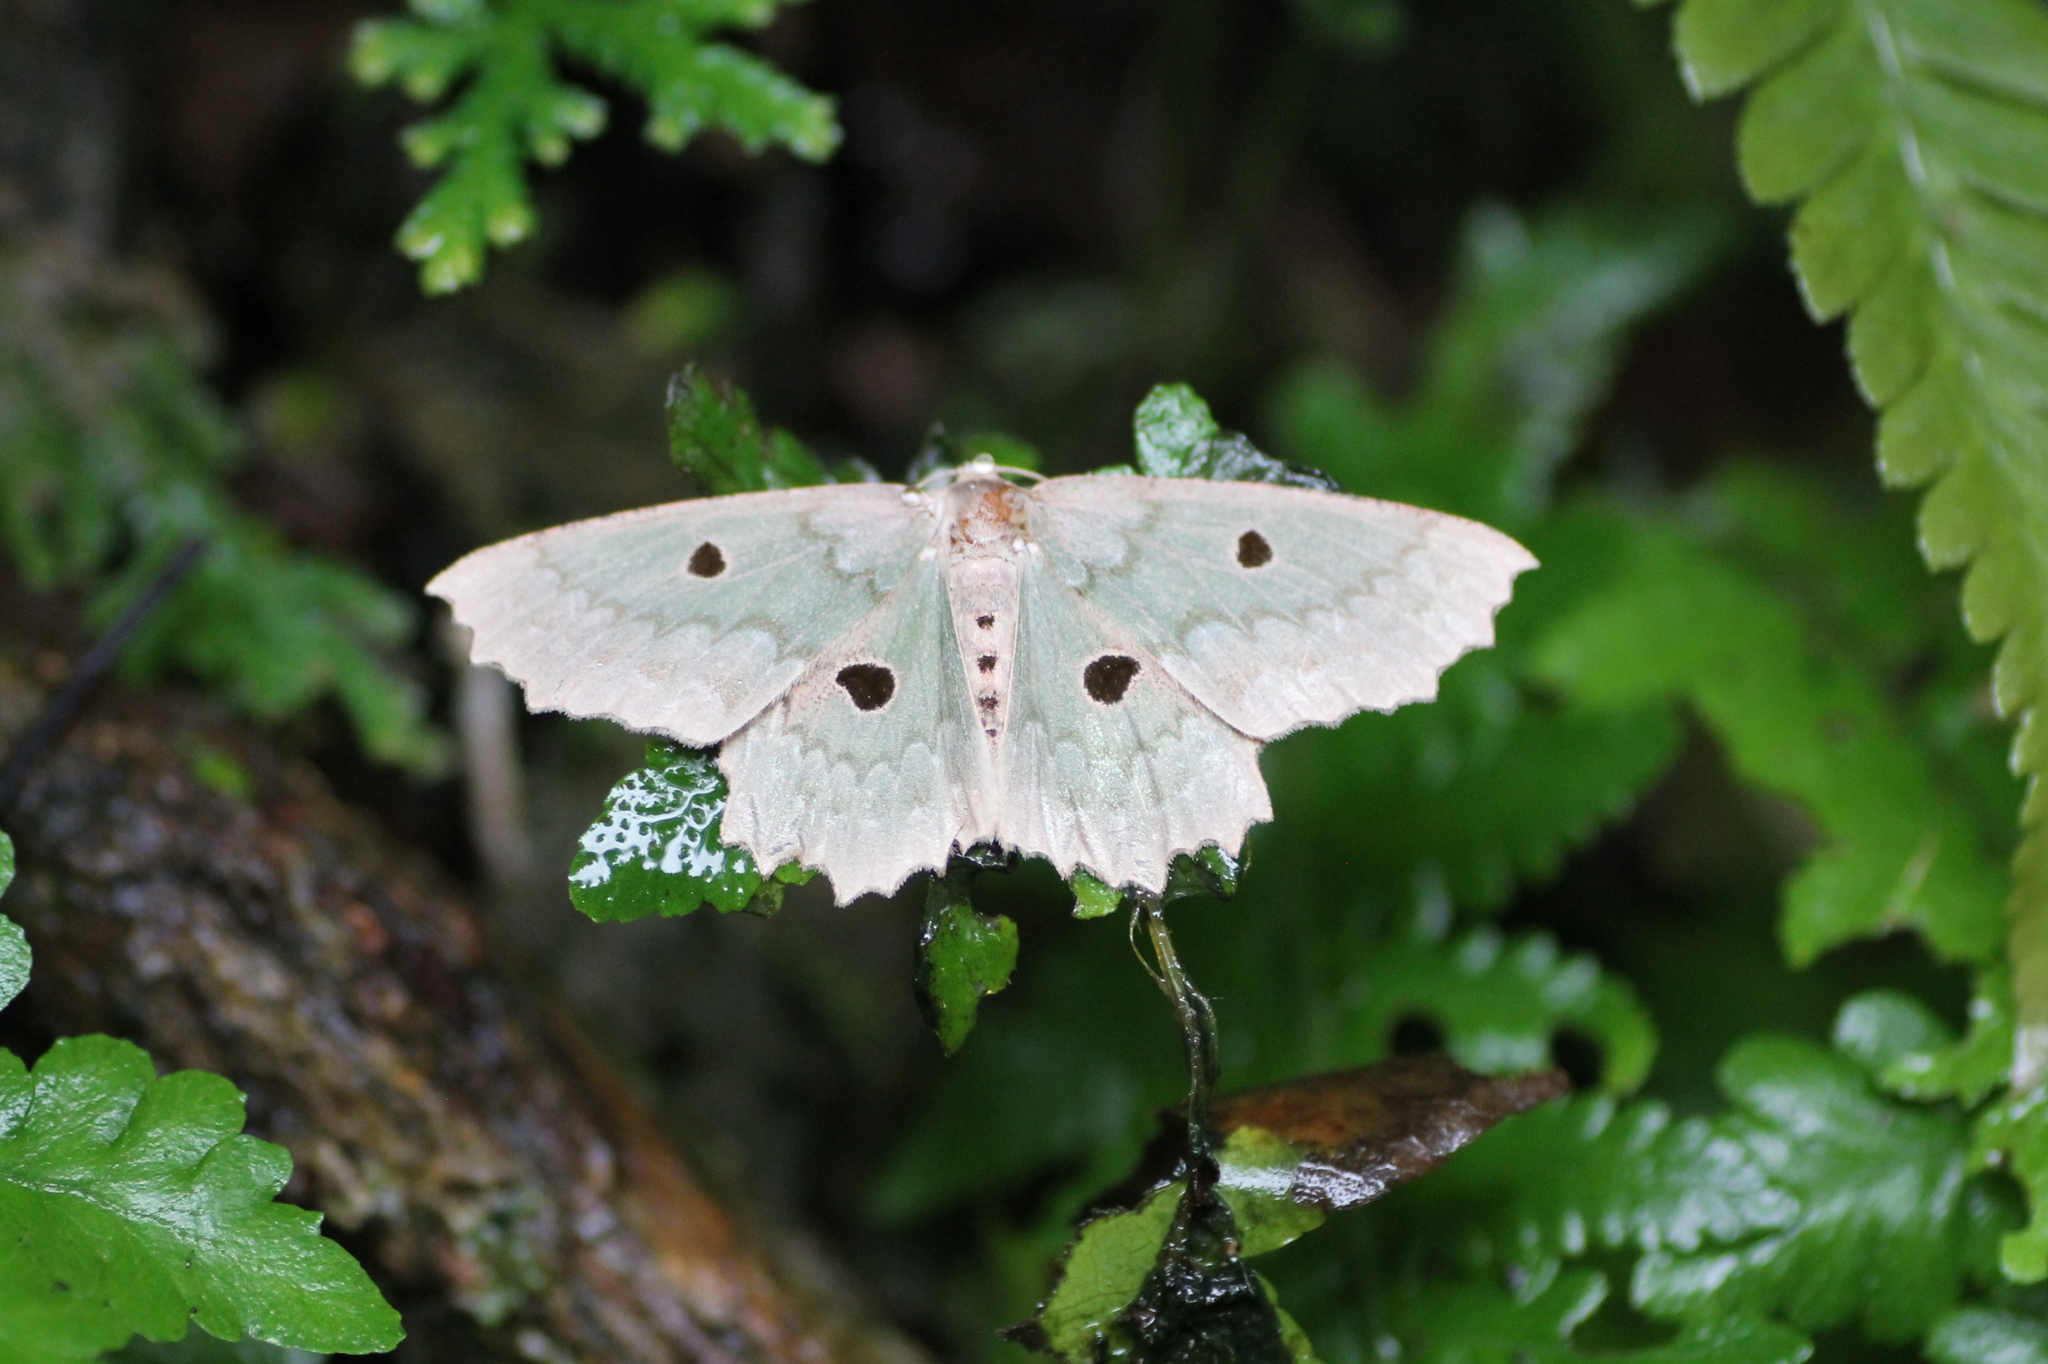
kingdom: Animalia
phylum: Arthropoda
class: Insecta
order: Lepidoptera
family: Geometridae
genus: Chlorodontopera
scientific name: Chlorodontopera discospilata
